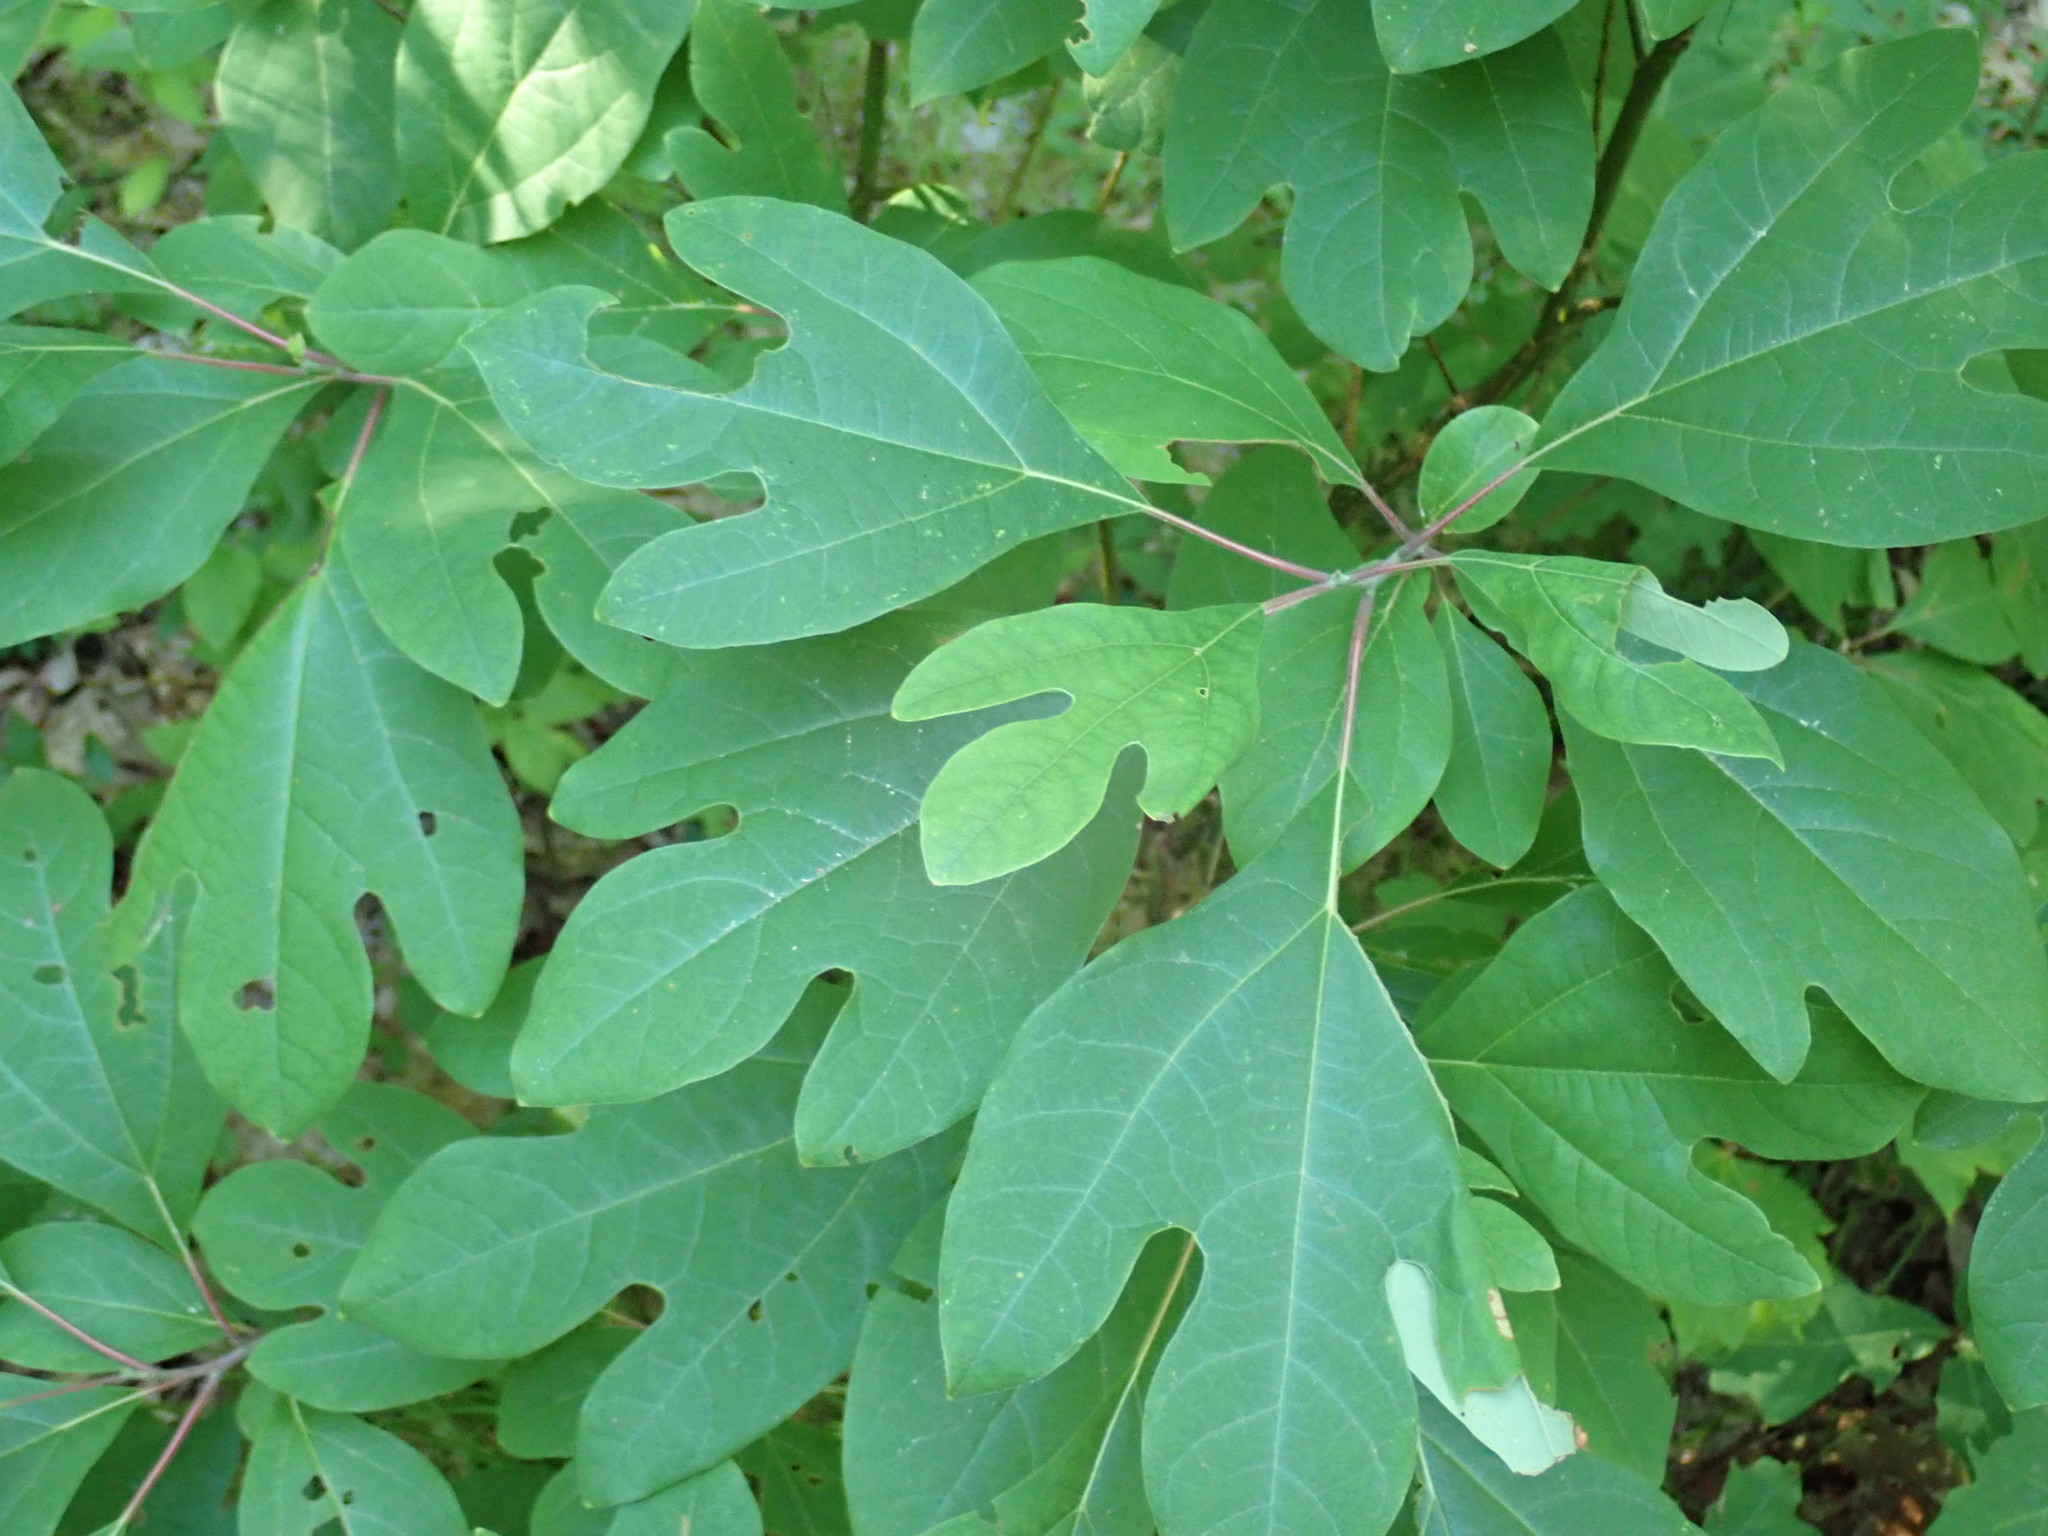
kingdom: Plantae
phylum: Tracheophyta
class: Magnoliopsida
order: Laurales
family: Lauraceae
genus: Sassafras
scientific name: Sassafras albidum
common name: Sassafras
